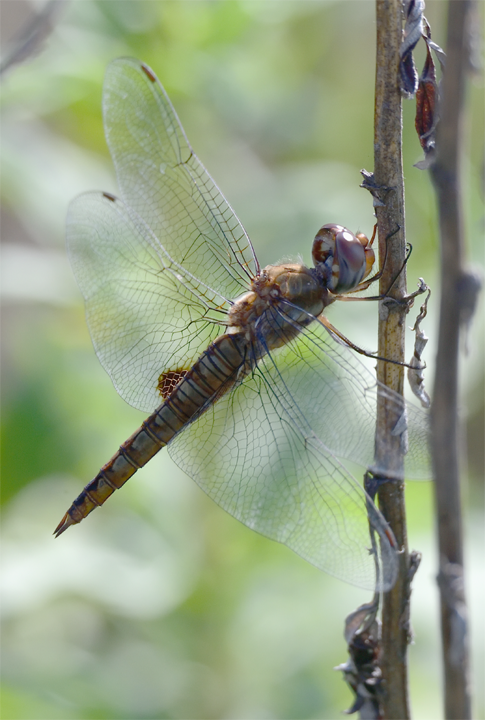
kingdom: Animalia
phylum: Arthropoda
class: Insecta
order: Odonata
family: Libellulidae
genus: Pantala
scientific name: Pantala hymenaea
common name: Spot-winged glider
